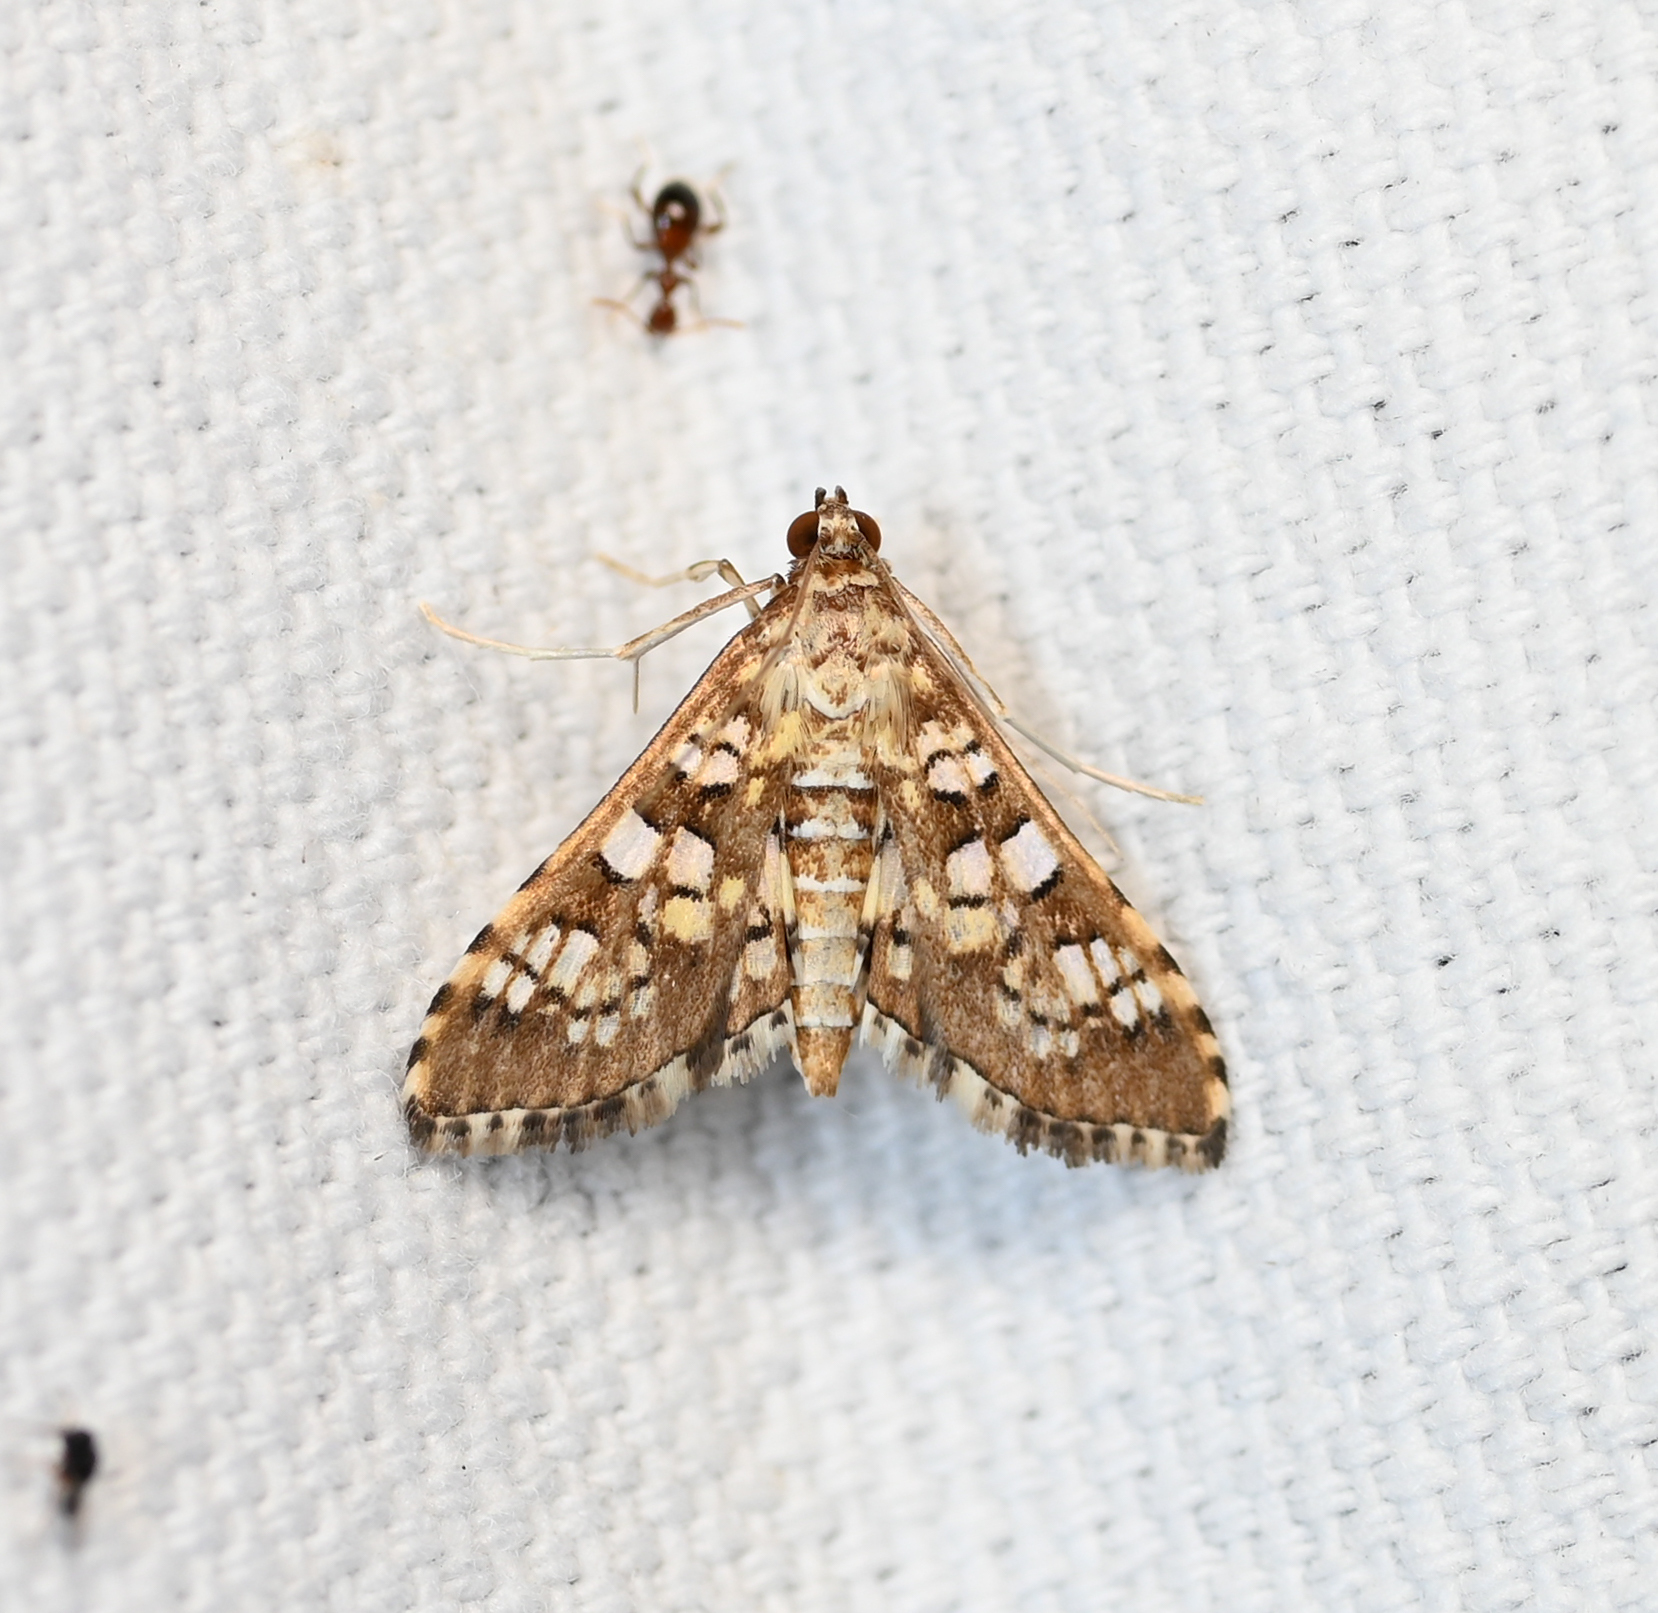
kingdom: Animalia
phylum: Arthropoda
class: Insecta
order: Lepidoptera
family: Crambidae
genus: Samea
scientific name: Samea ecclesialis
